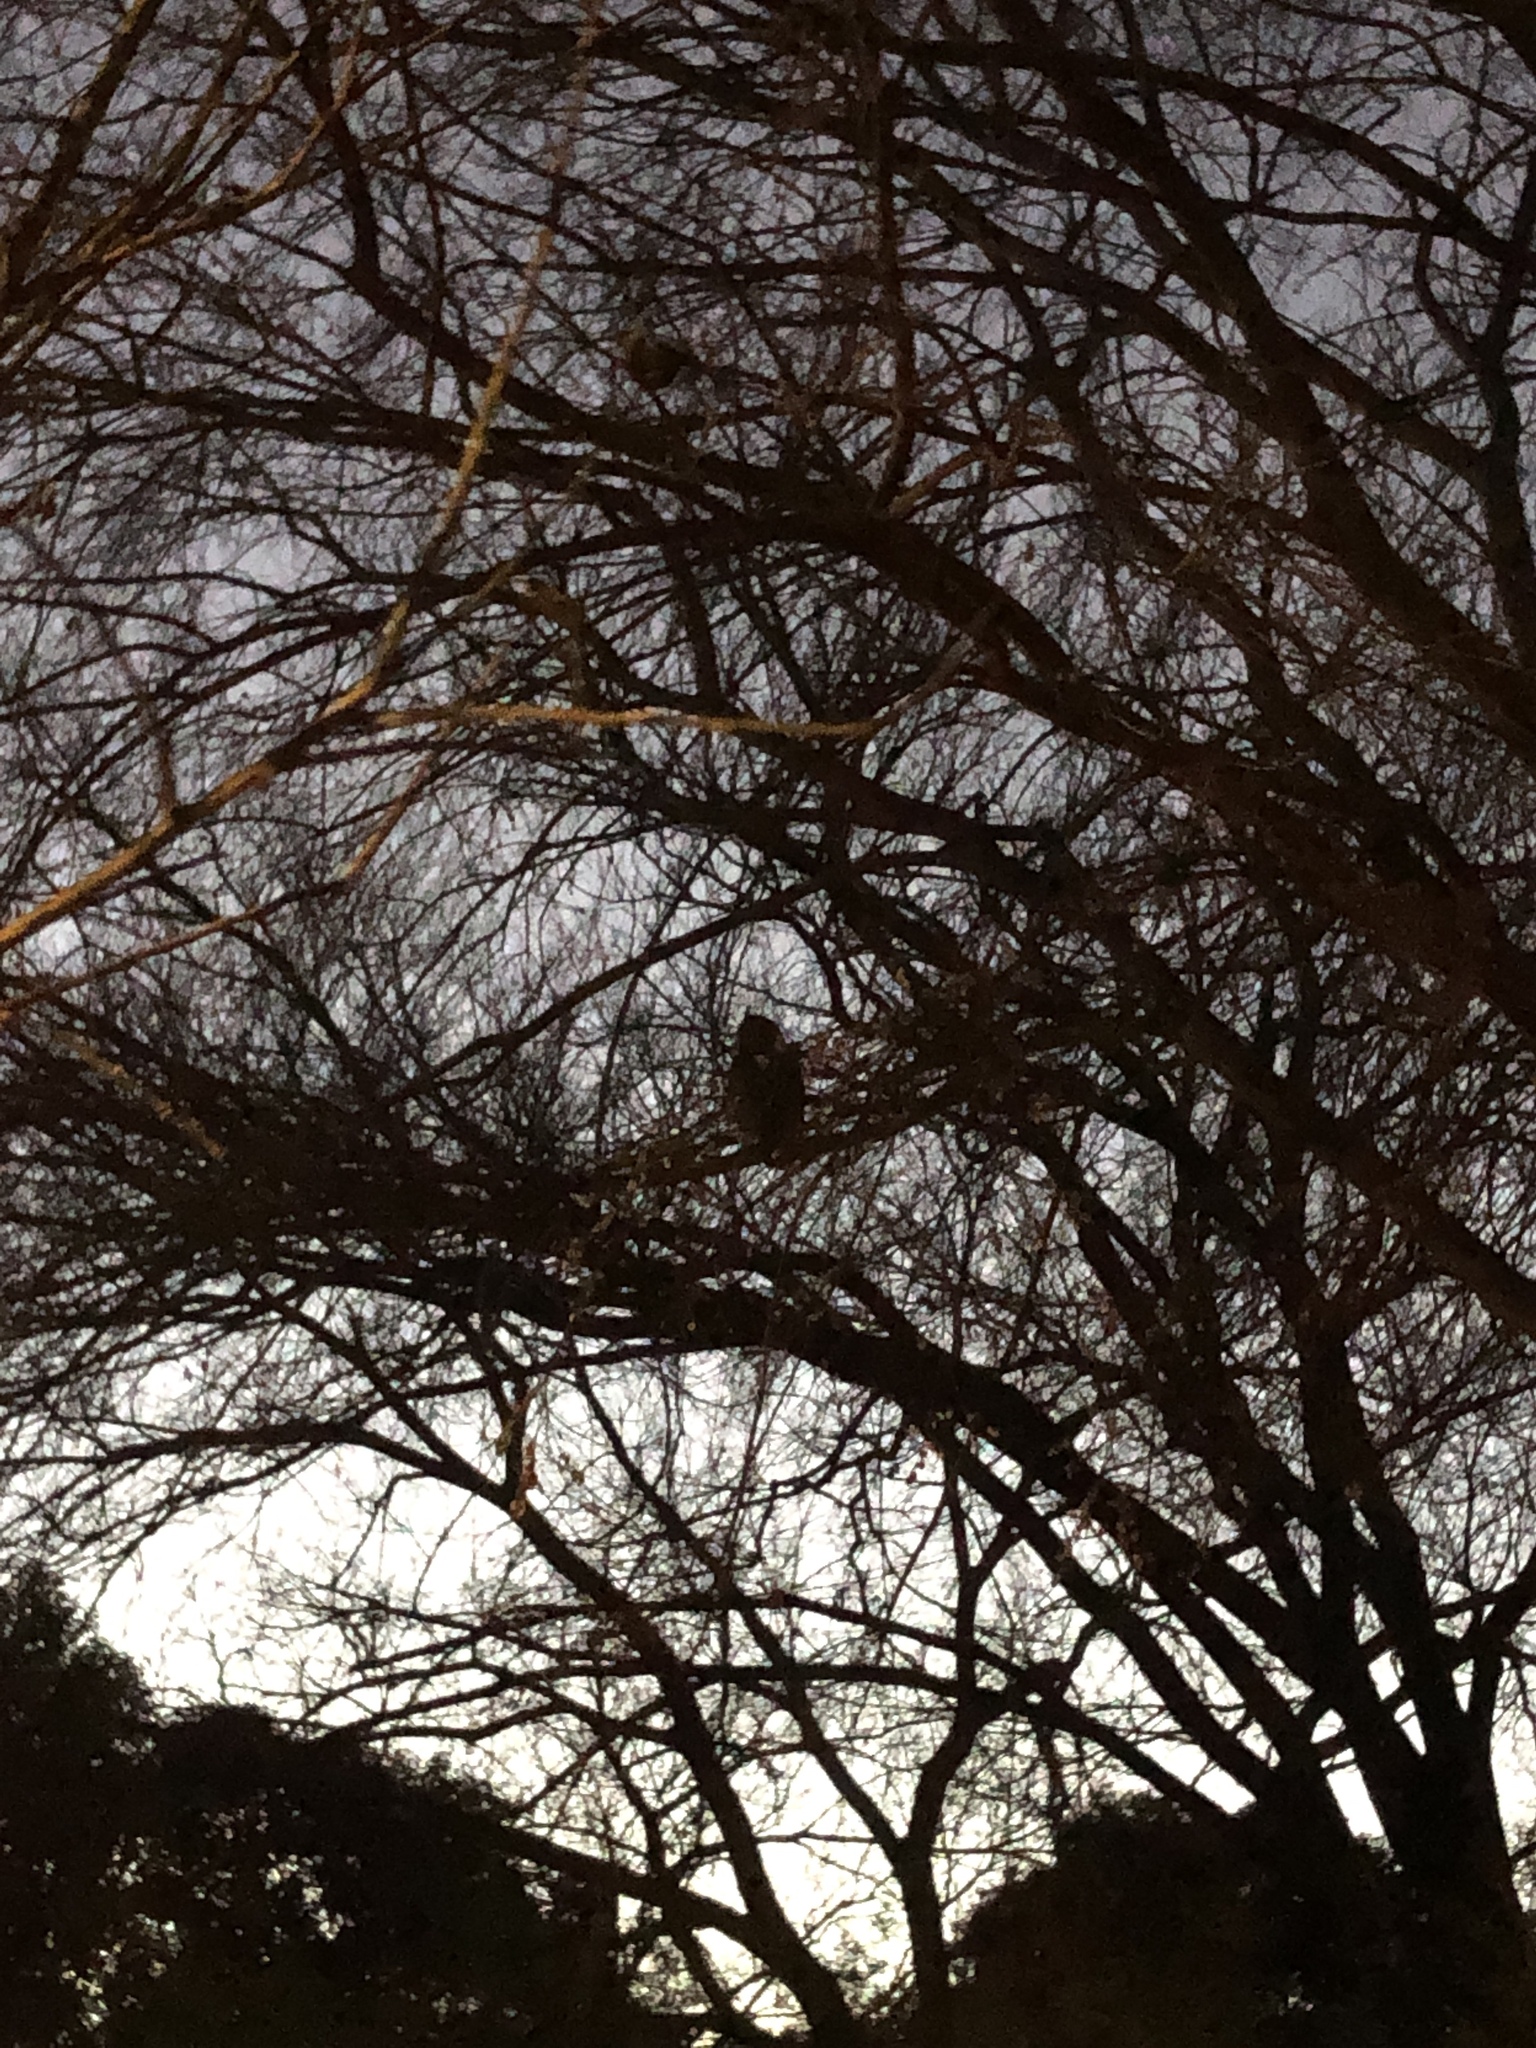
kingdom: Animalia
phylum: Chordata
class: Aves
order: Strigiformes
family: Strigidae
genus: Bubo
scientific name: Bubo virginianus
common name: Great horned owl
